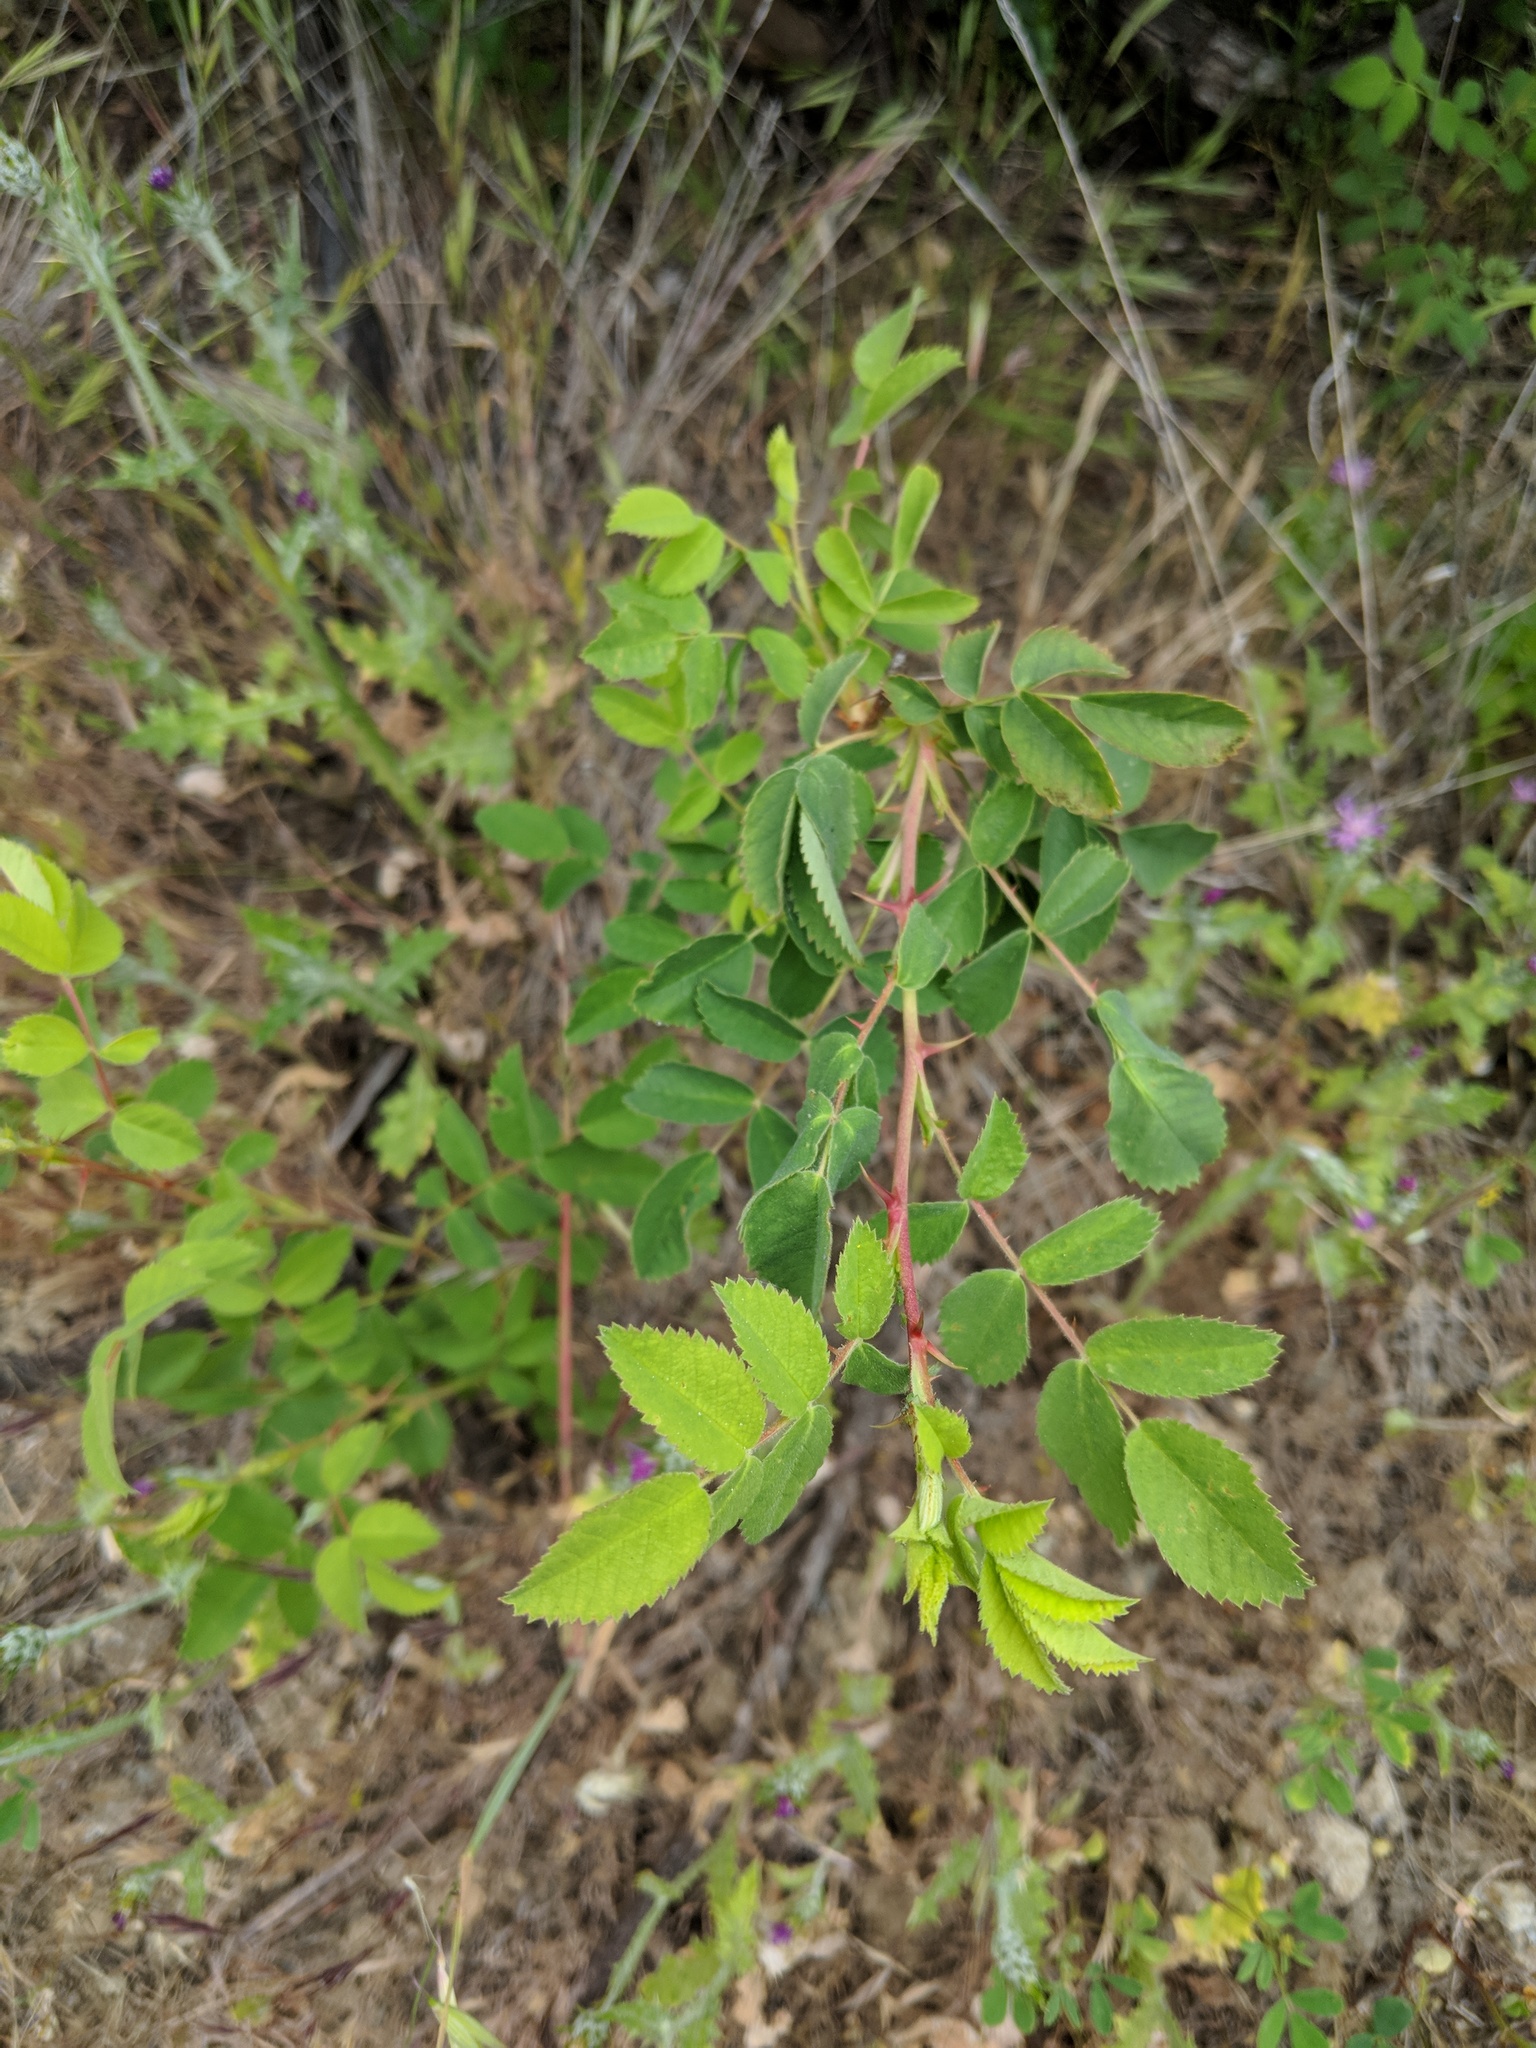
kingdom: Plantae
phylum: Tracheophyta
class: Magnoliopsida
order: Rosales
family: Rosaceae
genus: Rosa
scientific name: Rosa californica
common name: California rose
